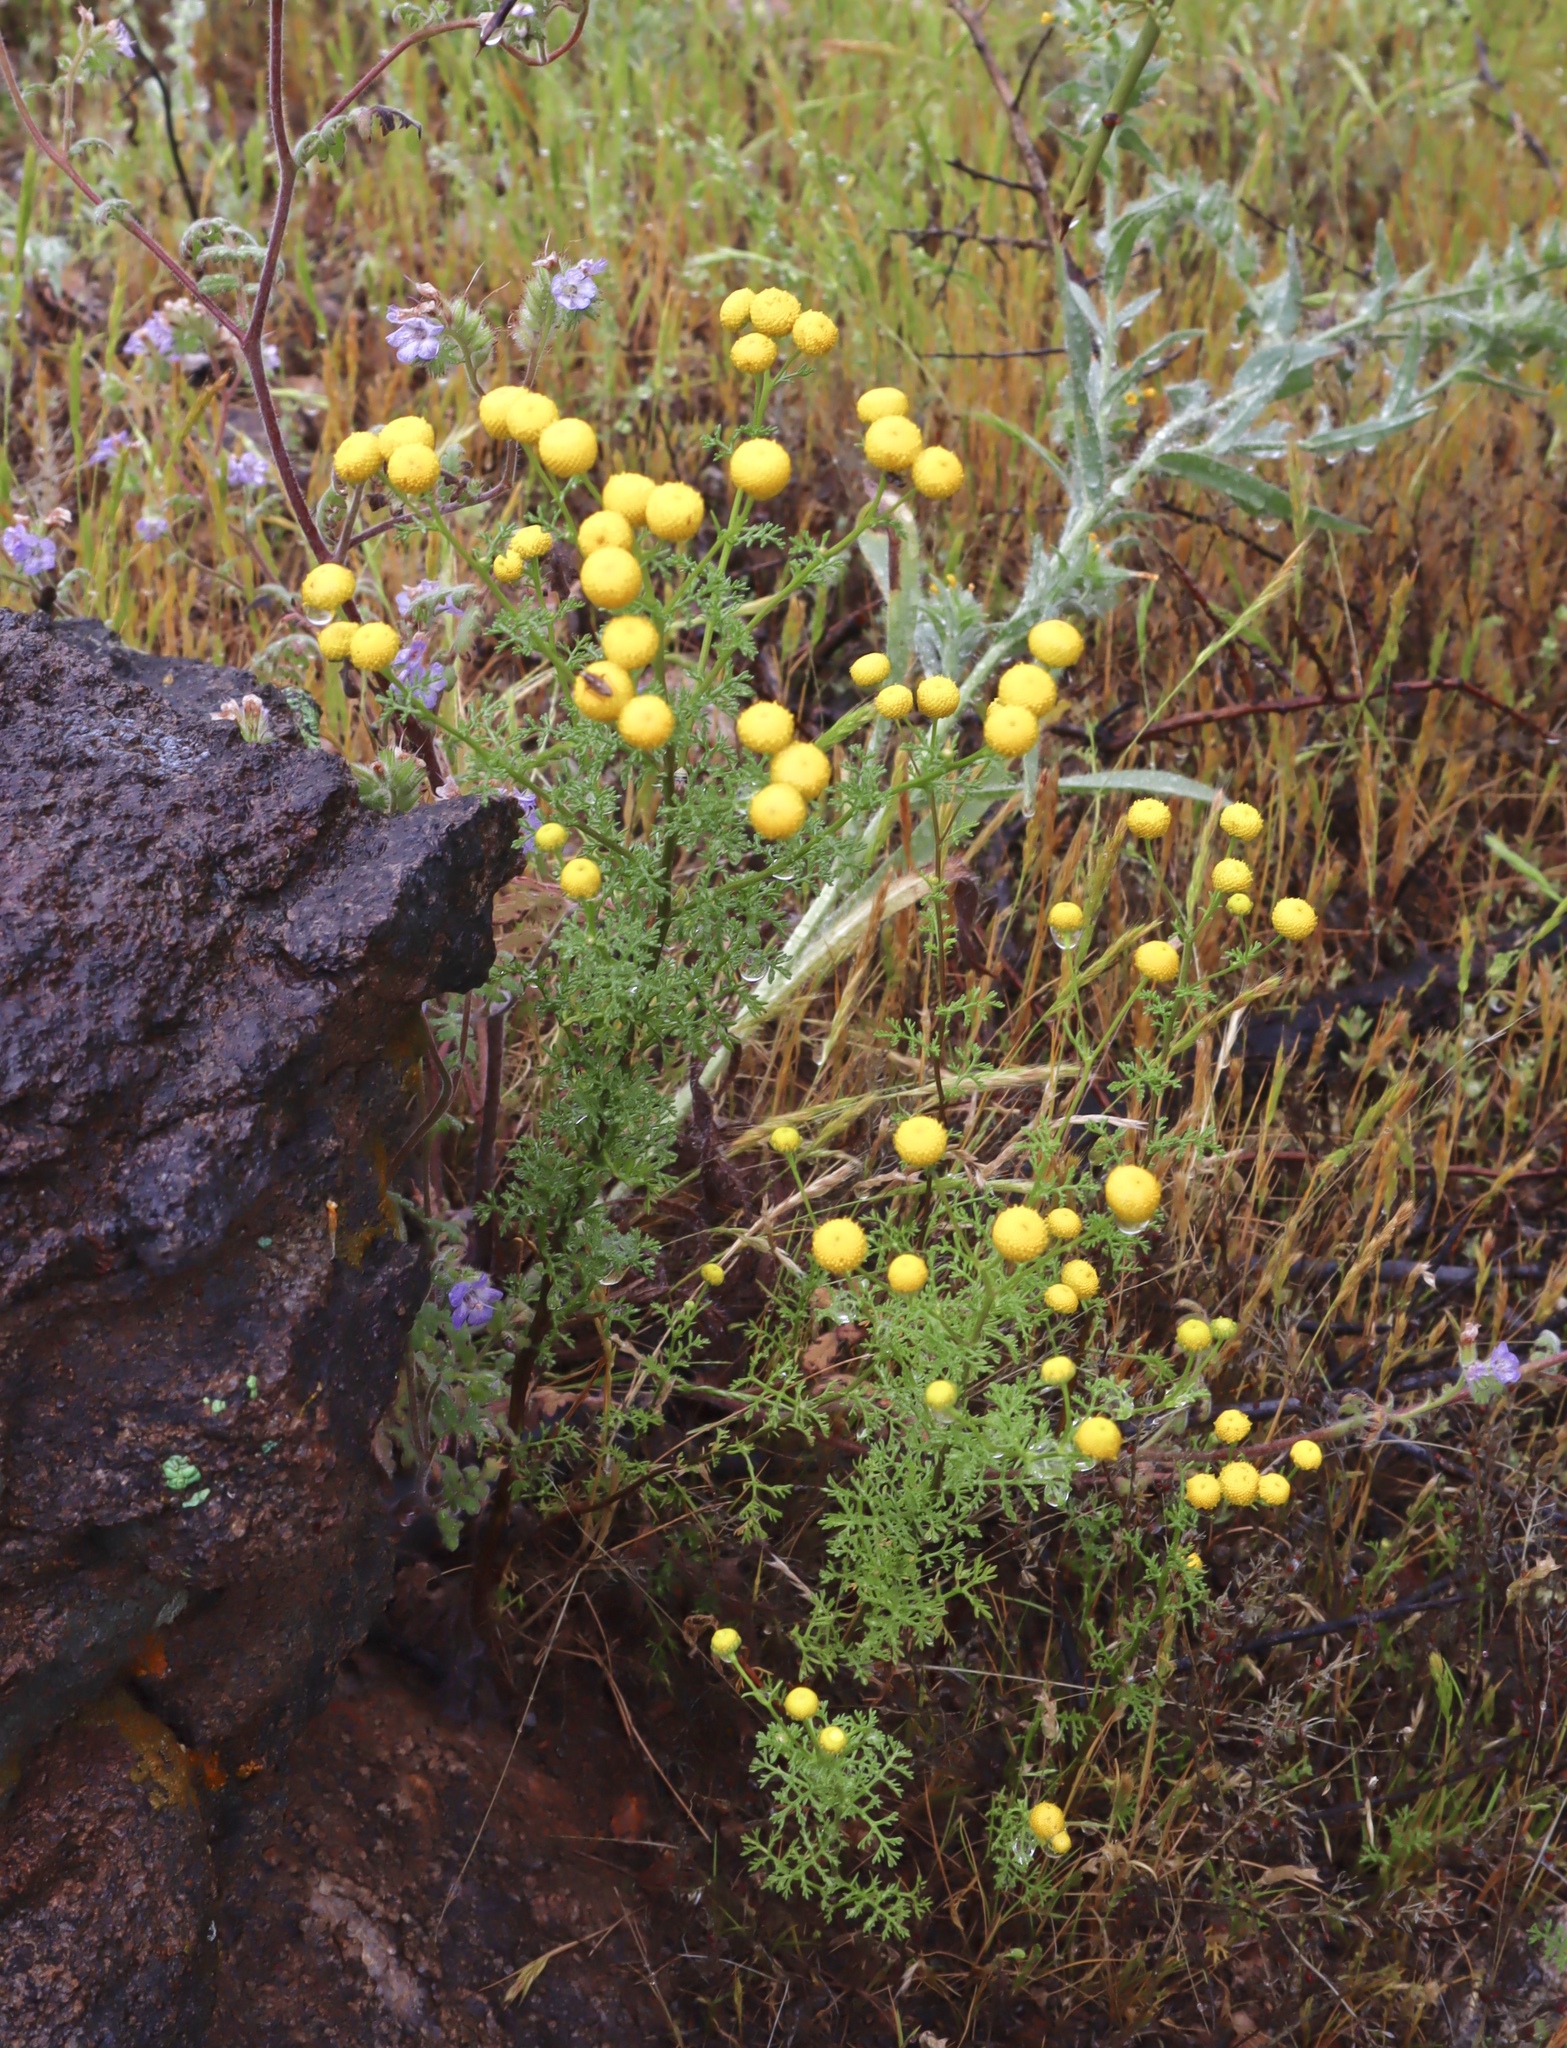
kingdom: Plantae
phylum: Tracheophyta
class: Magnoliopsida
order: Asterales
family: Asteraceae
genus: Oncosiphon
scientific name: Oncosiphon pilulifer
